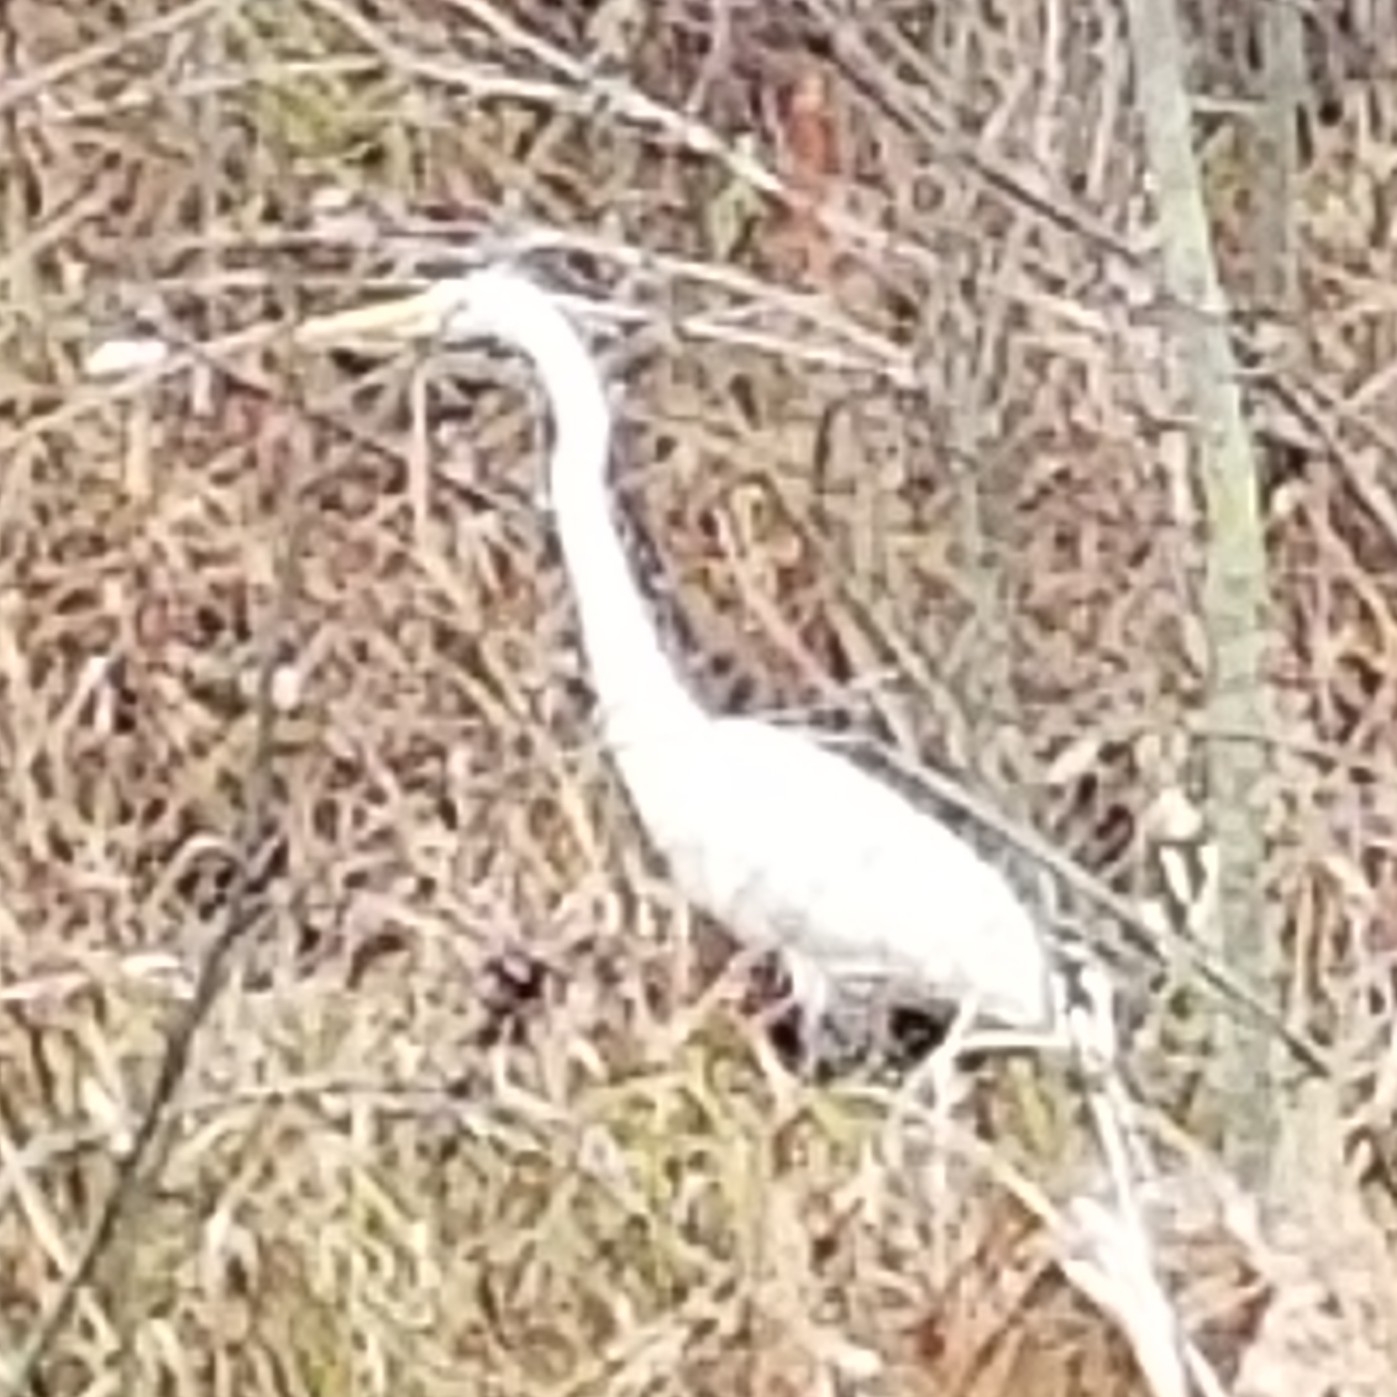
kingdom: Animalia
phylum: Chordata
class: Aves
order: Pelecaniformes
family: Ardeidae
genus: Ardea
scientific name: Ardea alba
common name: Great egret
